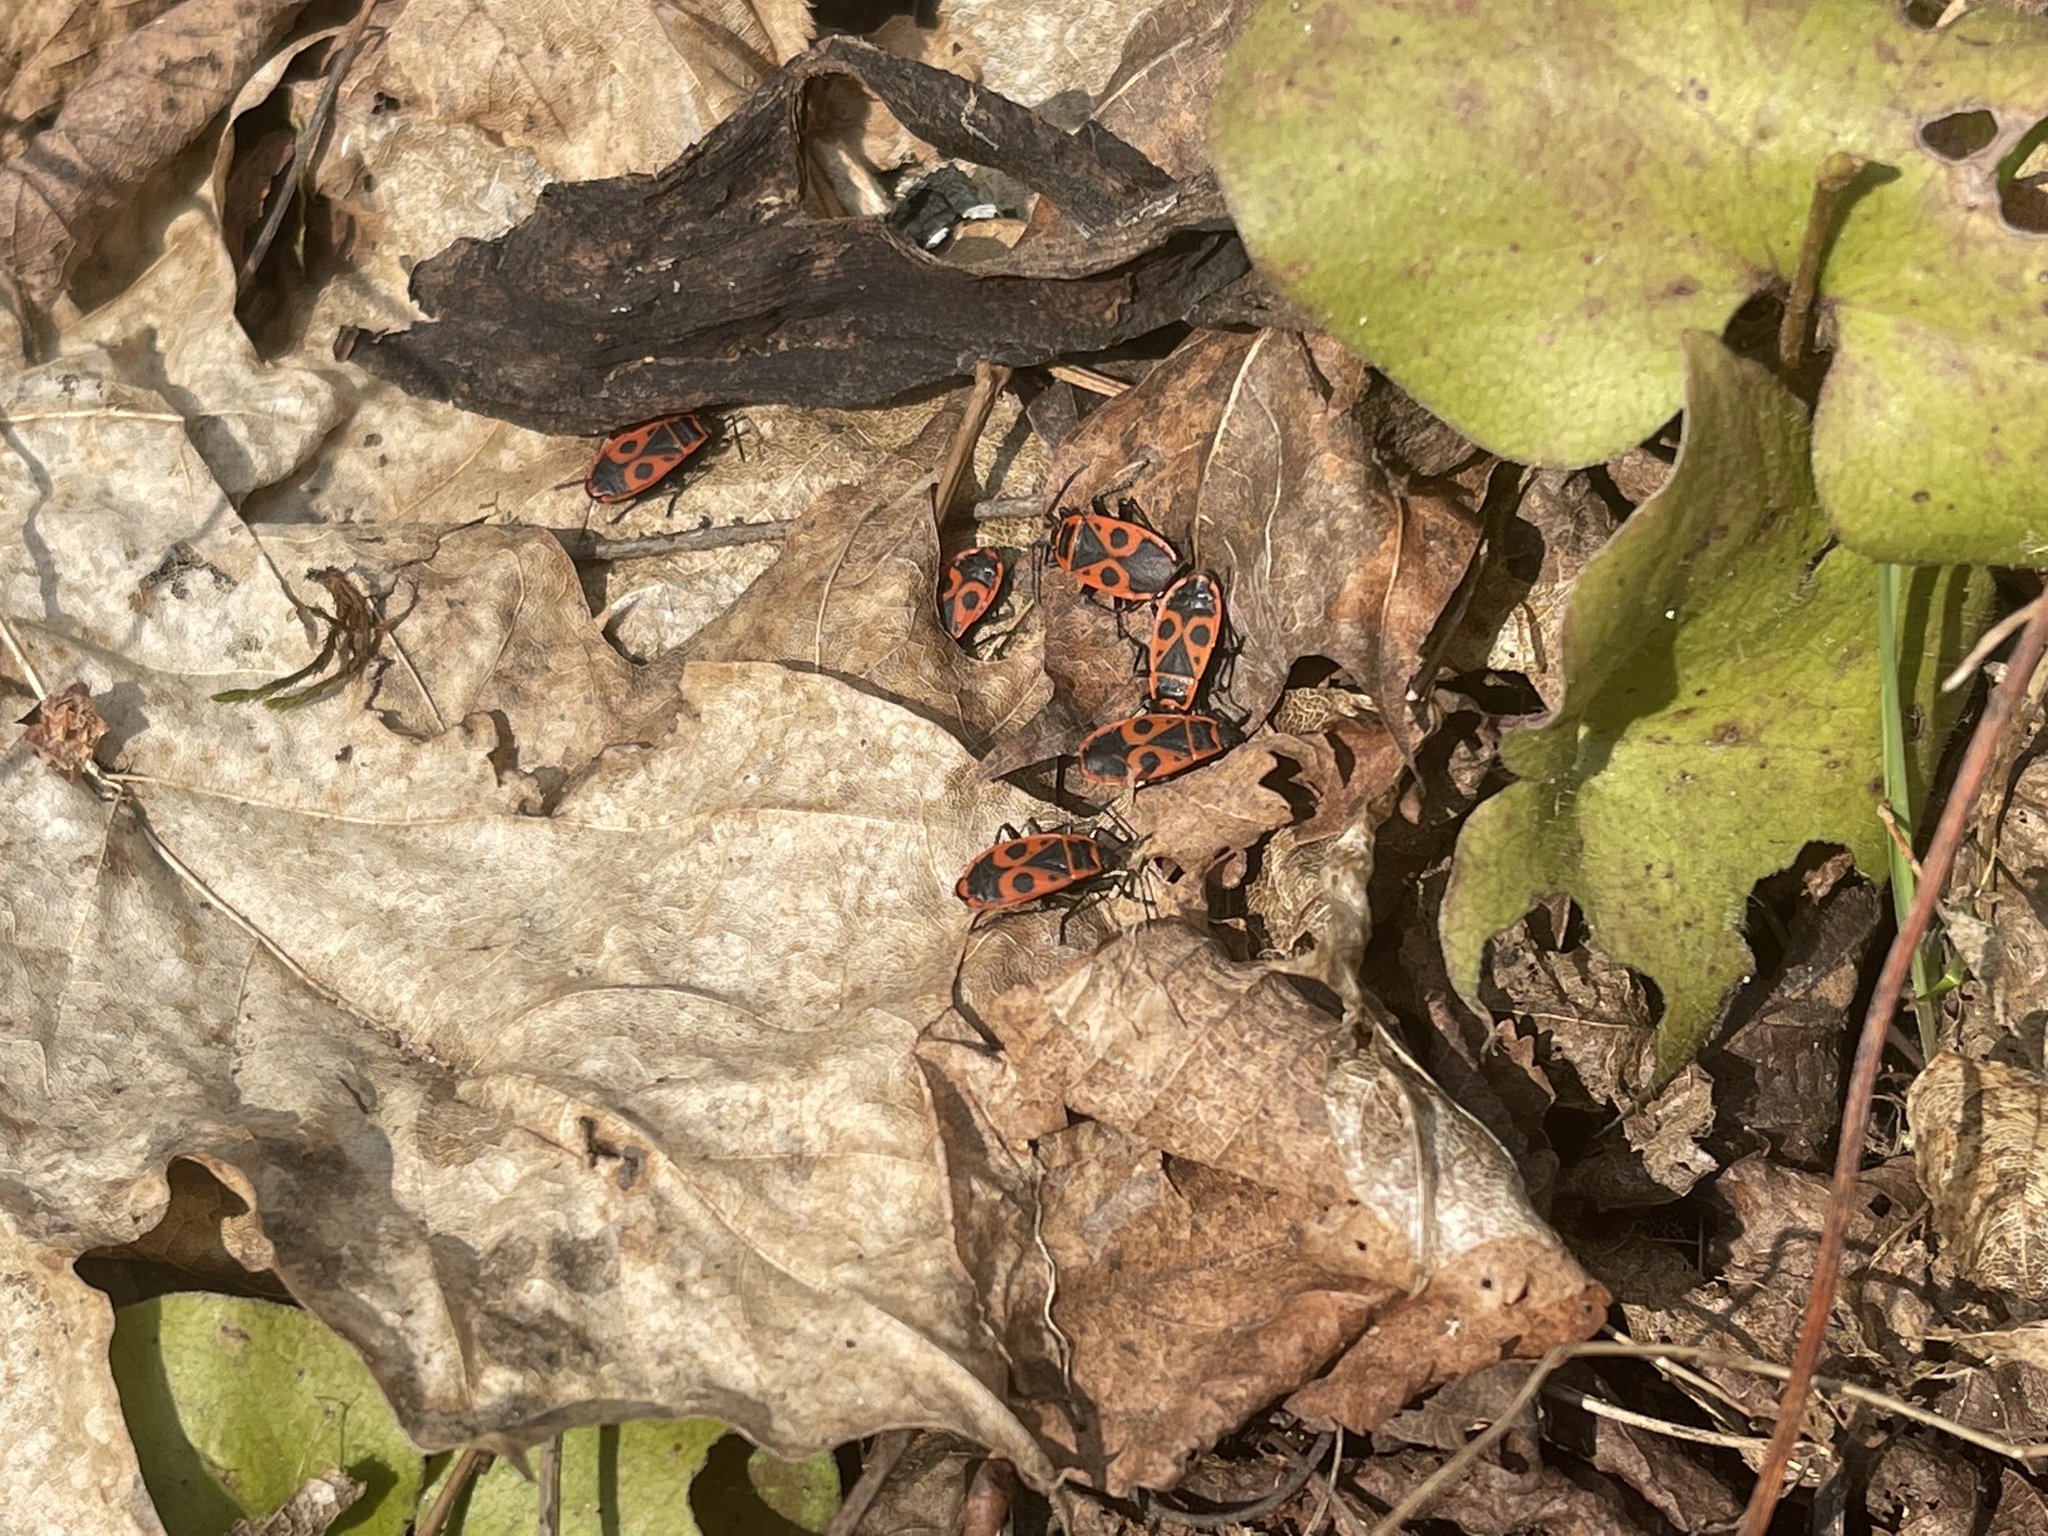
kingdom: Animalia
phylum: Arthropoda
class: Insecta
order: Hemiptera
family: Pyrrhocoridae
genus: Pyrrhocoris
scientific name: Pyrrhocoris apterus
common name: Firebug
